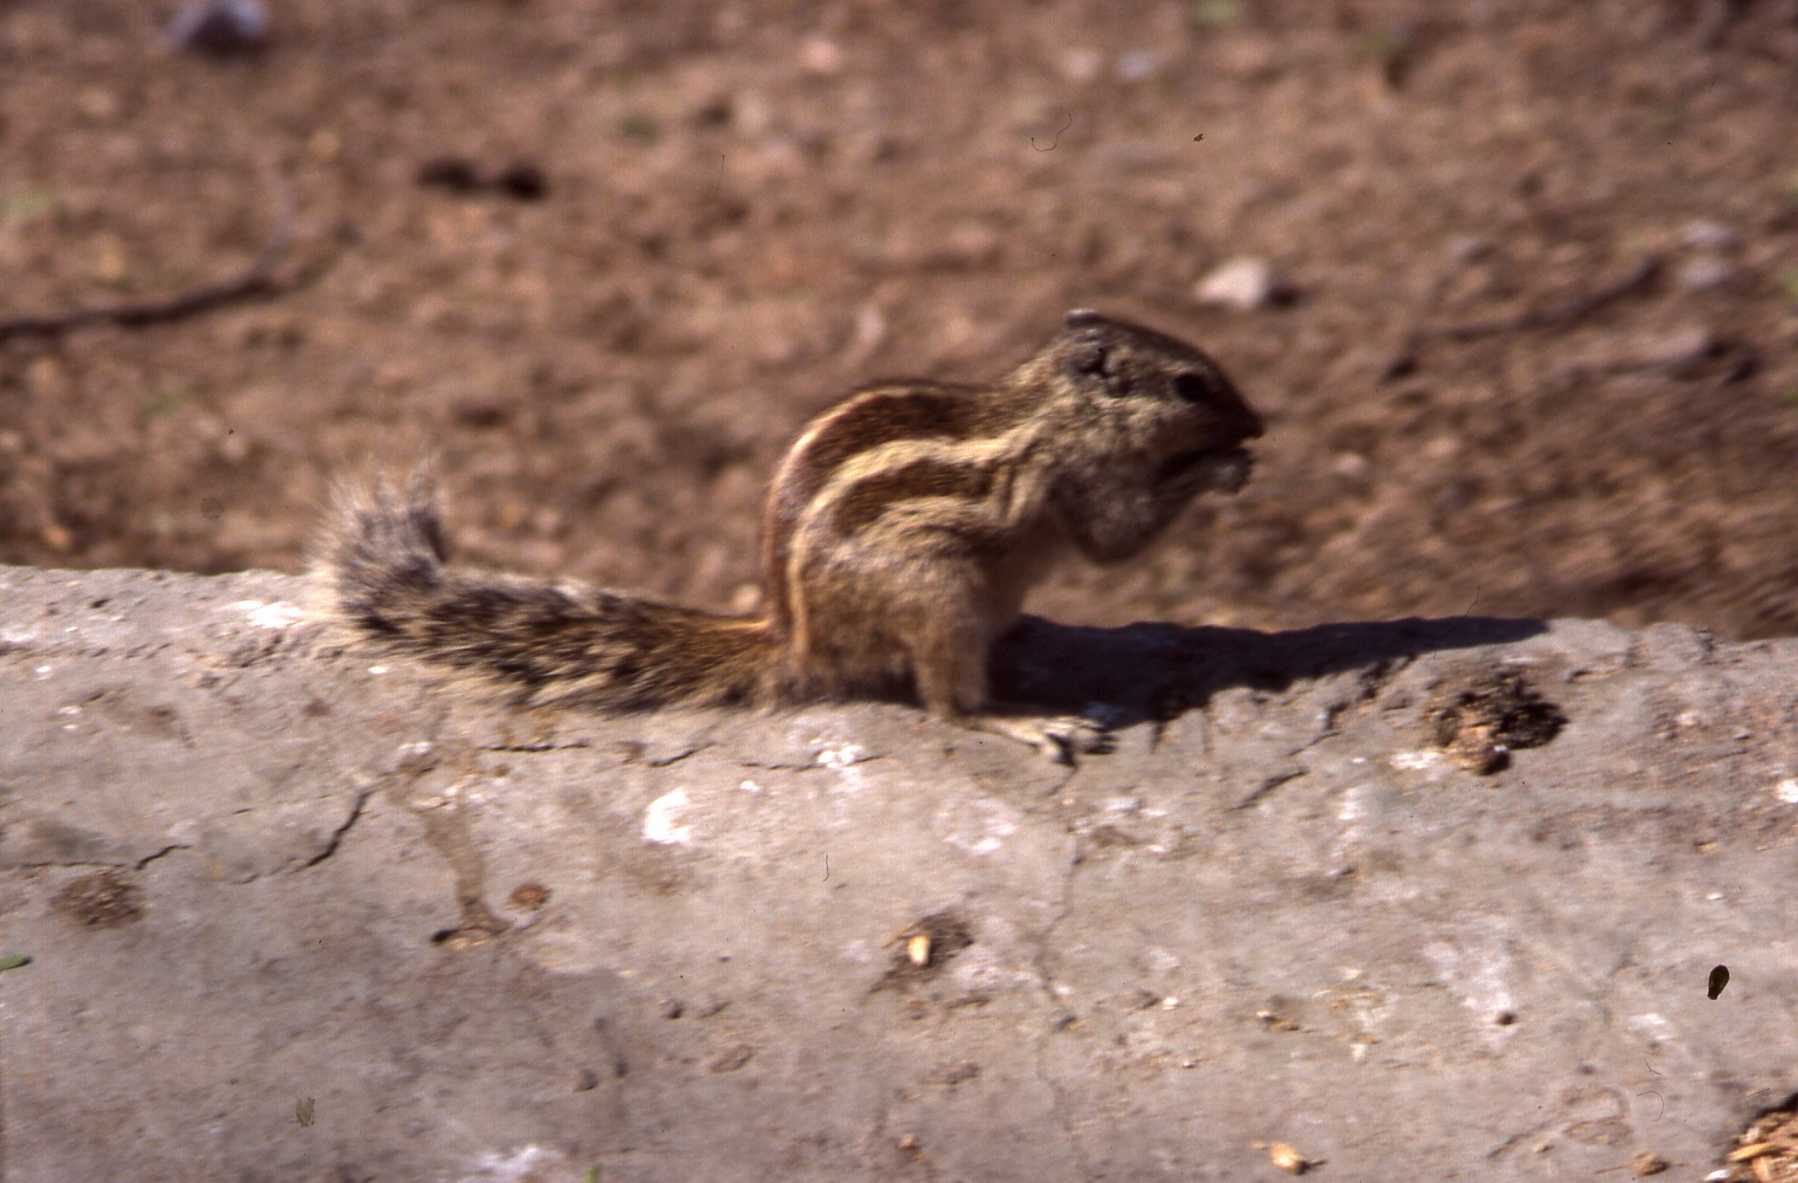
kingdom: Animalia
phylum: Chordata
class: Mammalia
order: Rodentia
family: Sciuridae
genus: Funambulus
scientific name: Funambulus pennantii
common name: Northern palm squirrel
